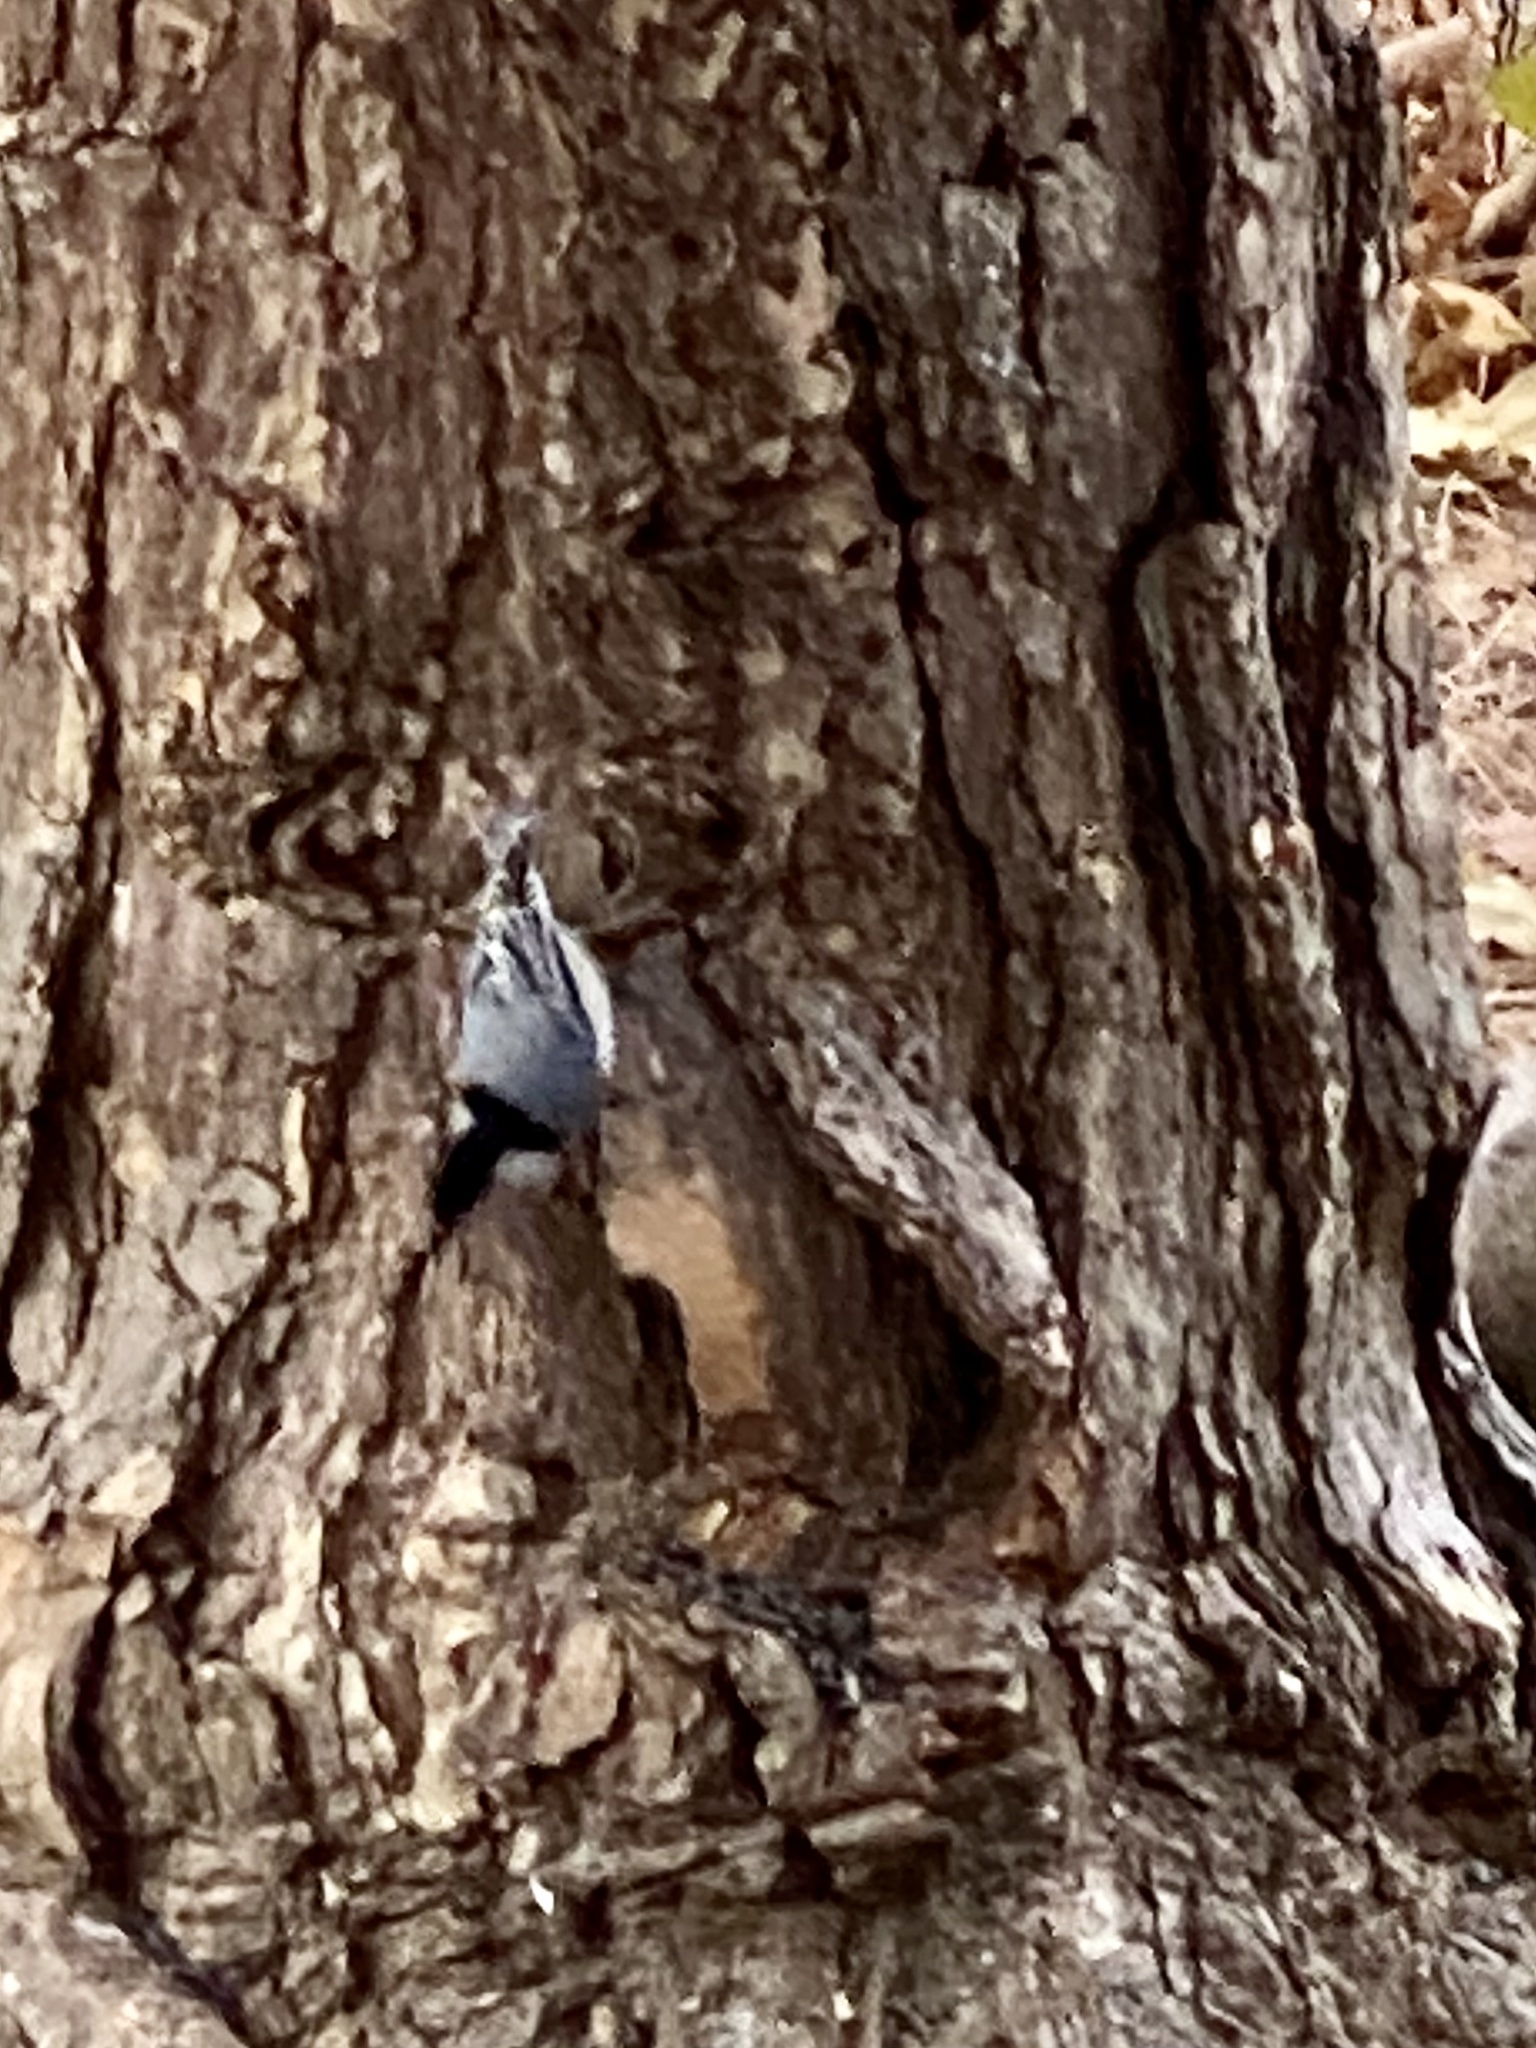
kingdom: Animalia
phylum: Chordata
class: Aves
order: Passeriformes
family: Sittidae
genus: Sitta
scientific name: Sitta carolinensis
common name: White-breasted nuthatch
